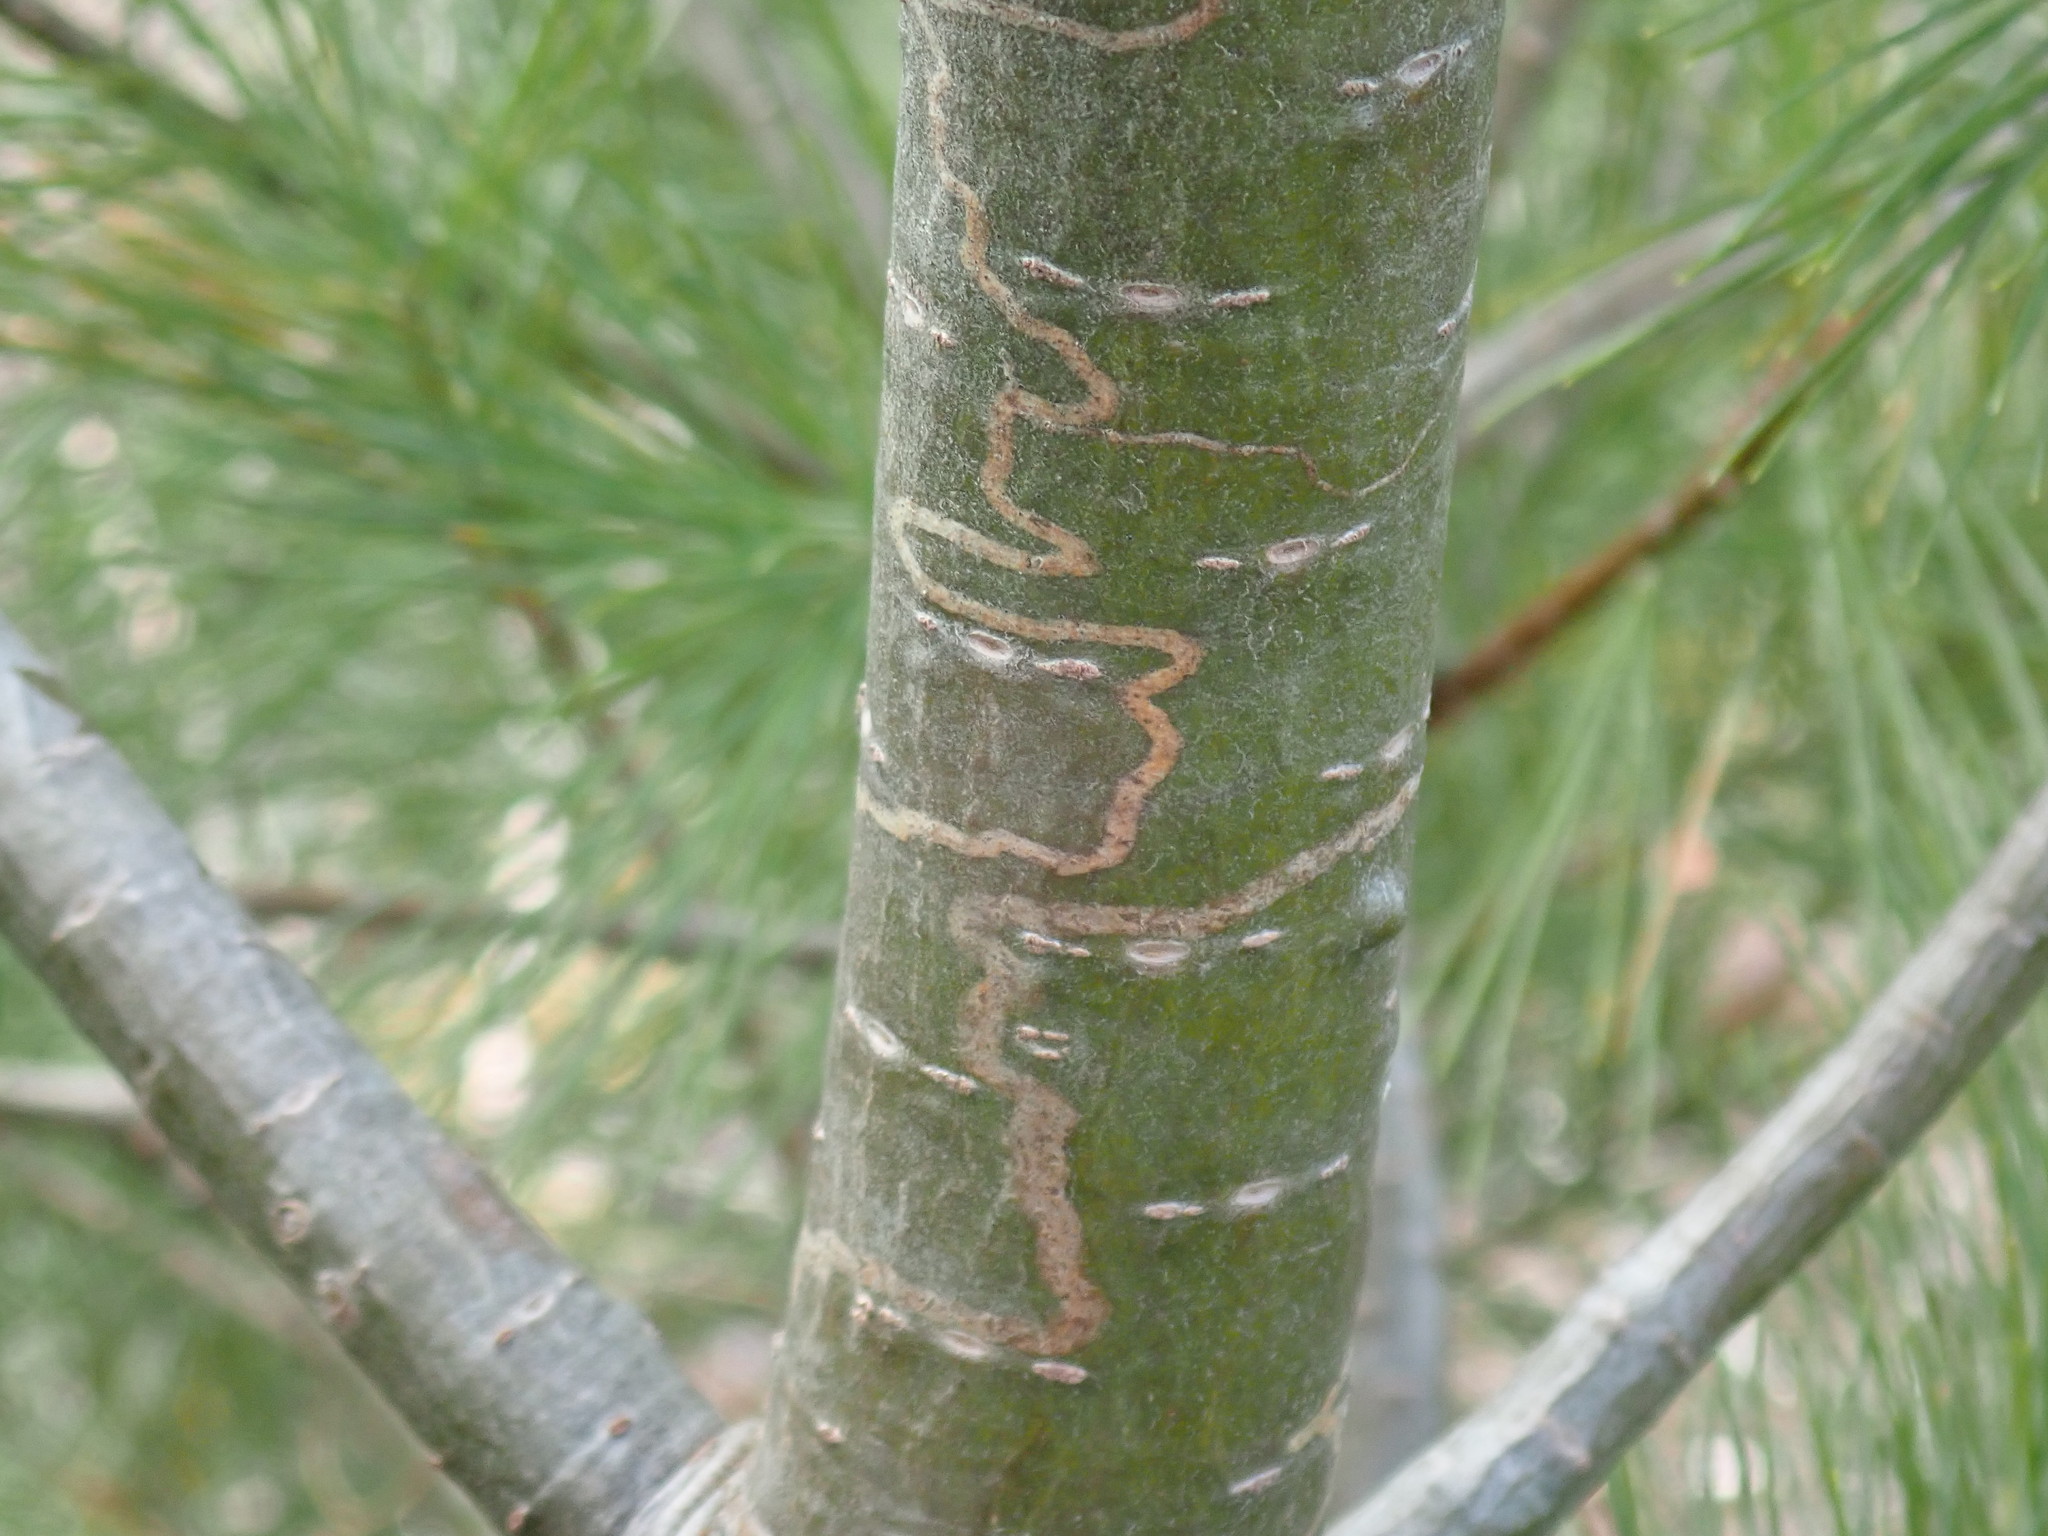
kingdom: Animalia
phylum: Arthropoda
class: Insecta
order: Lepidoptera
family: Gracillariidae
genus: Marmara
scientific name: Marmara fasciella
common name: White pine barkminer moth
